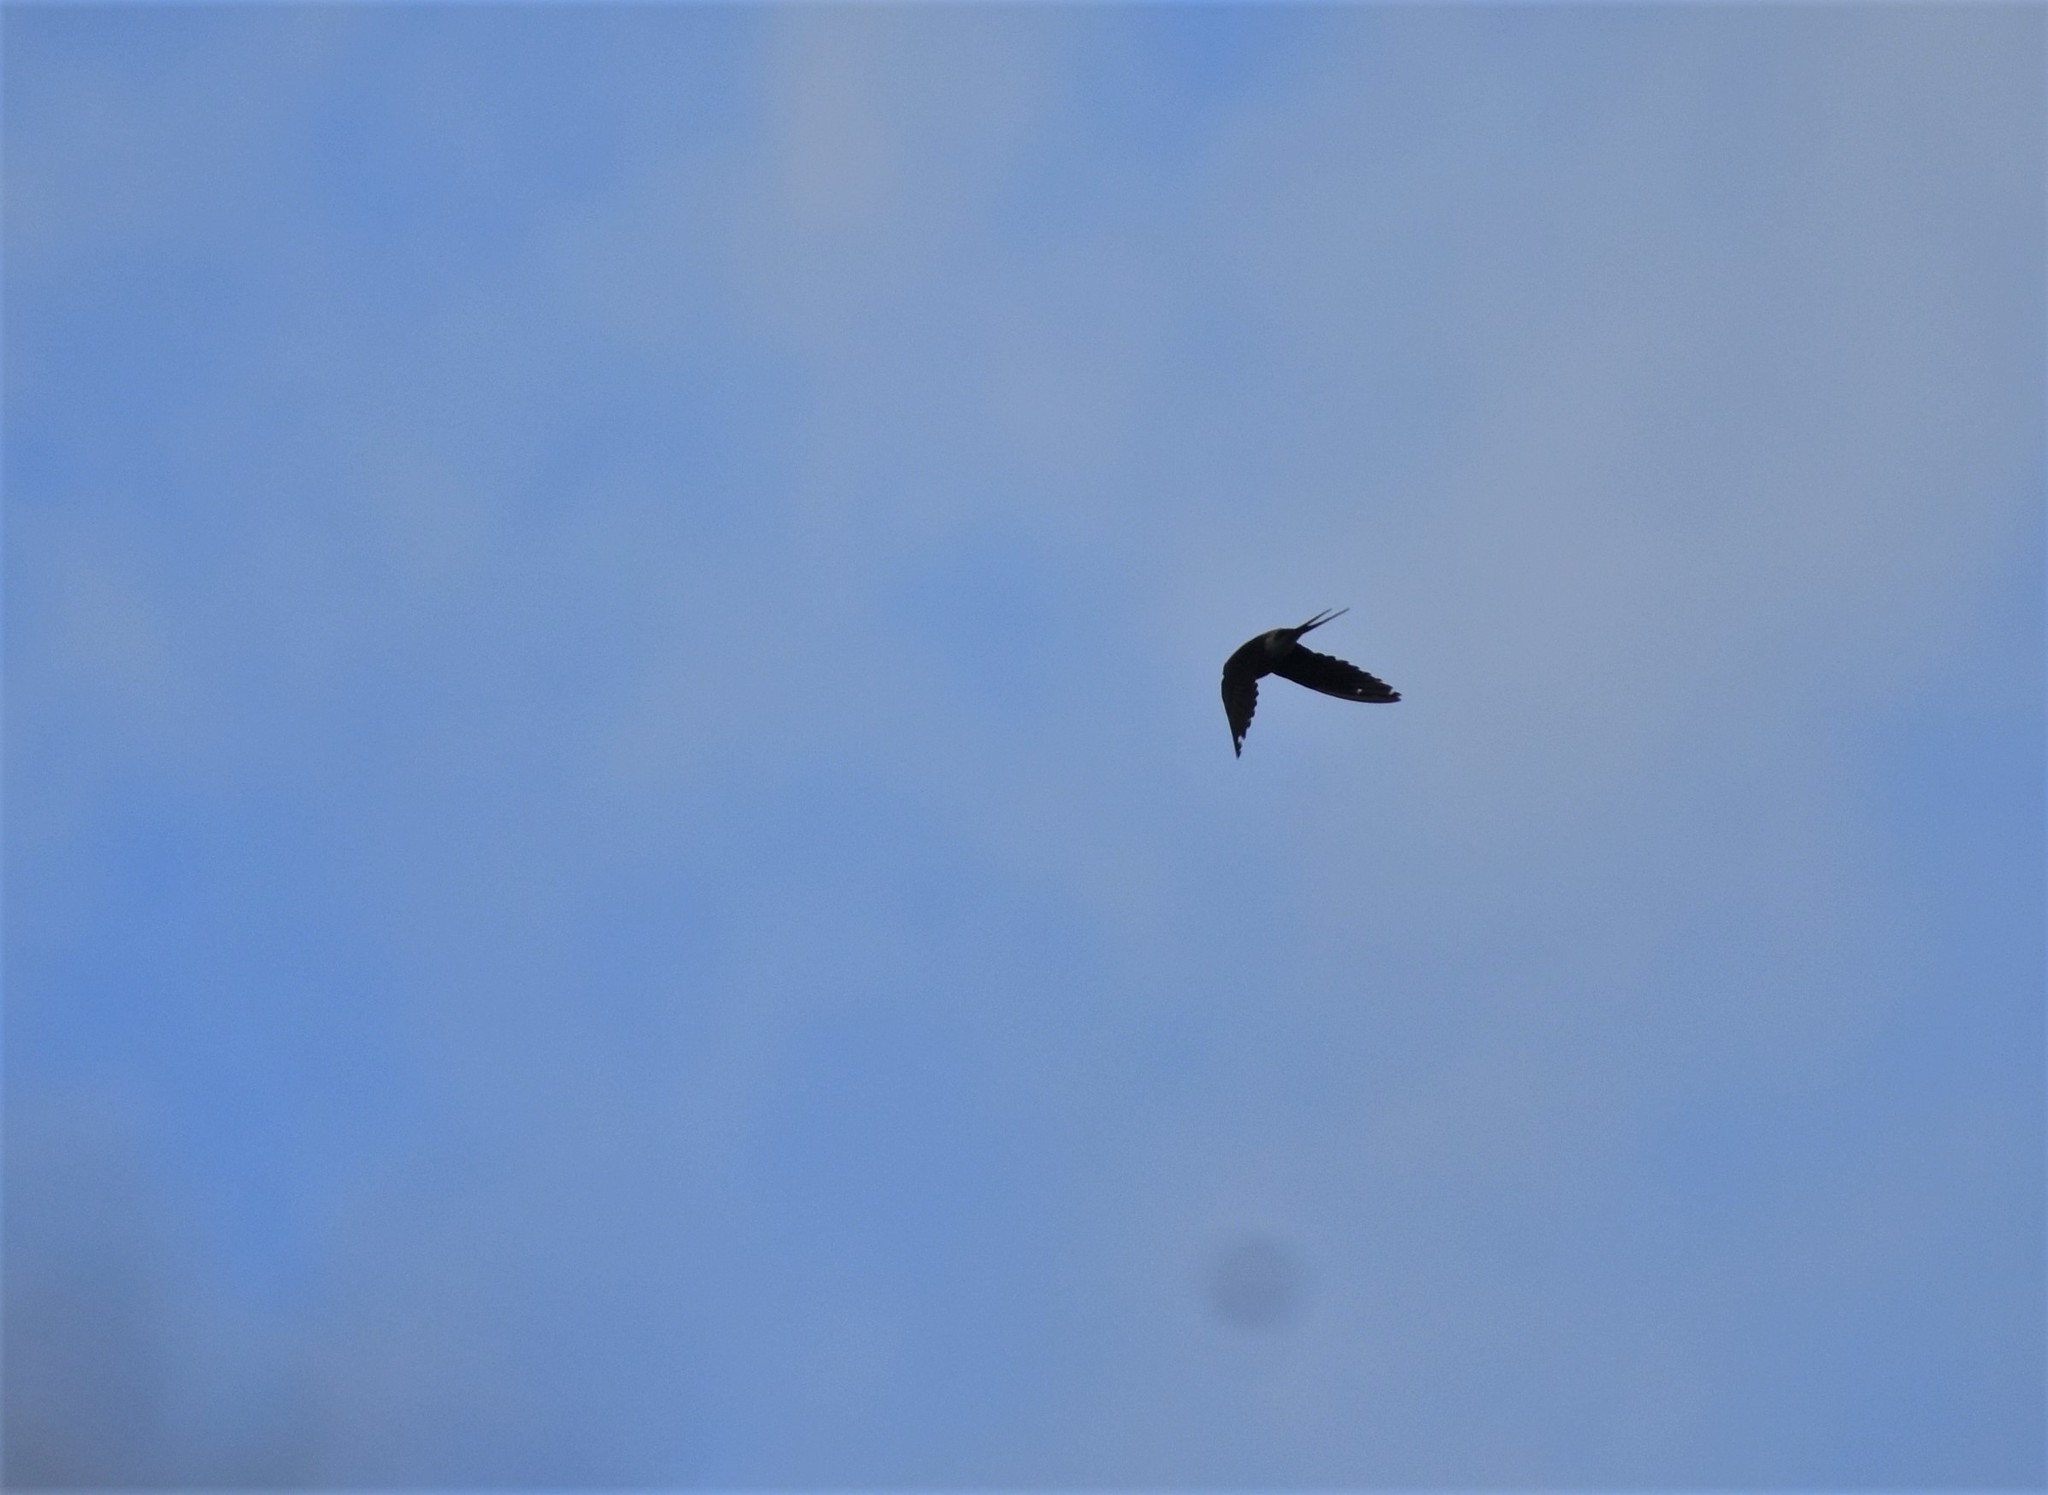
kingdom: Animalia
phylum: Chordata
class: Aves
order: Passeriformes
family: Hirundinidae
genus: Cecropis
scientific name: Cecropis cucullata
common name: Greater striped-swallow
